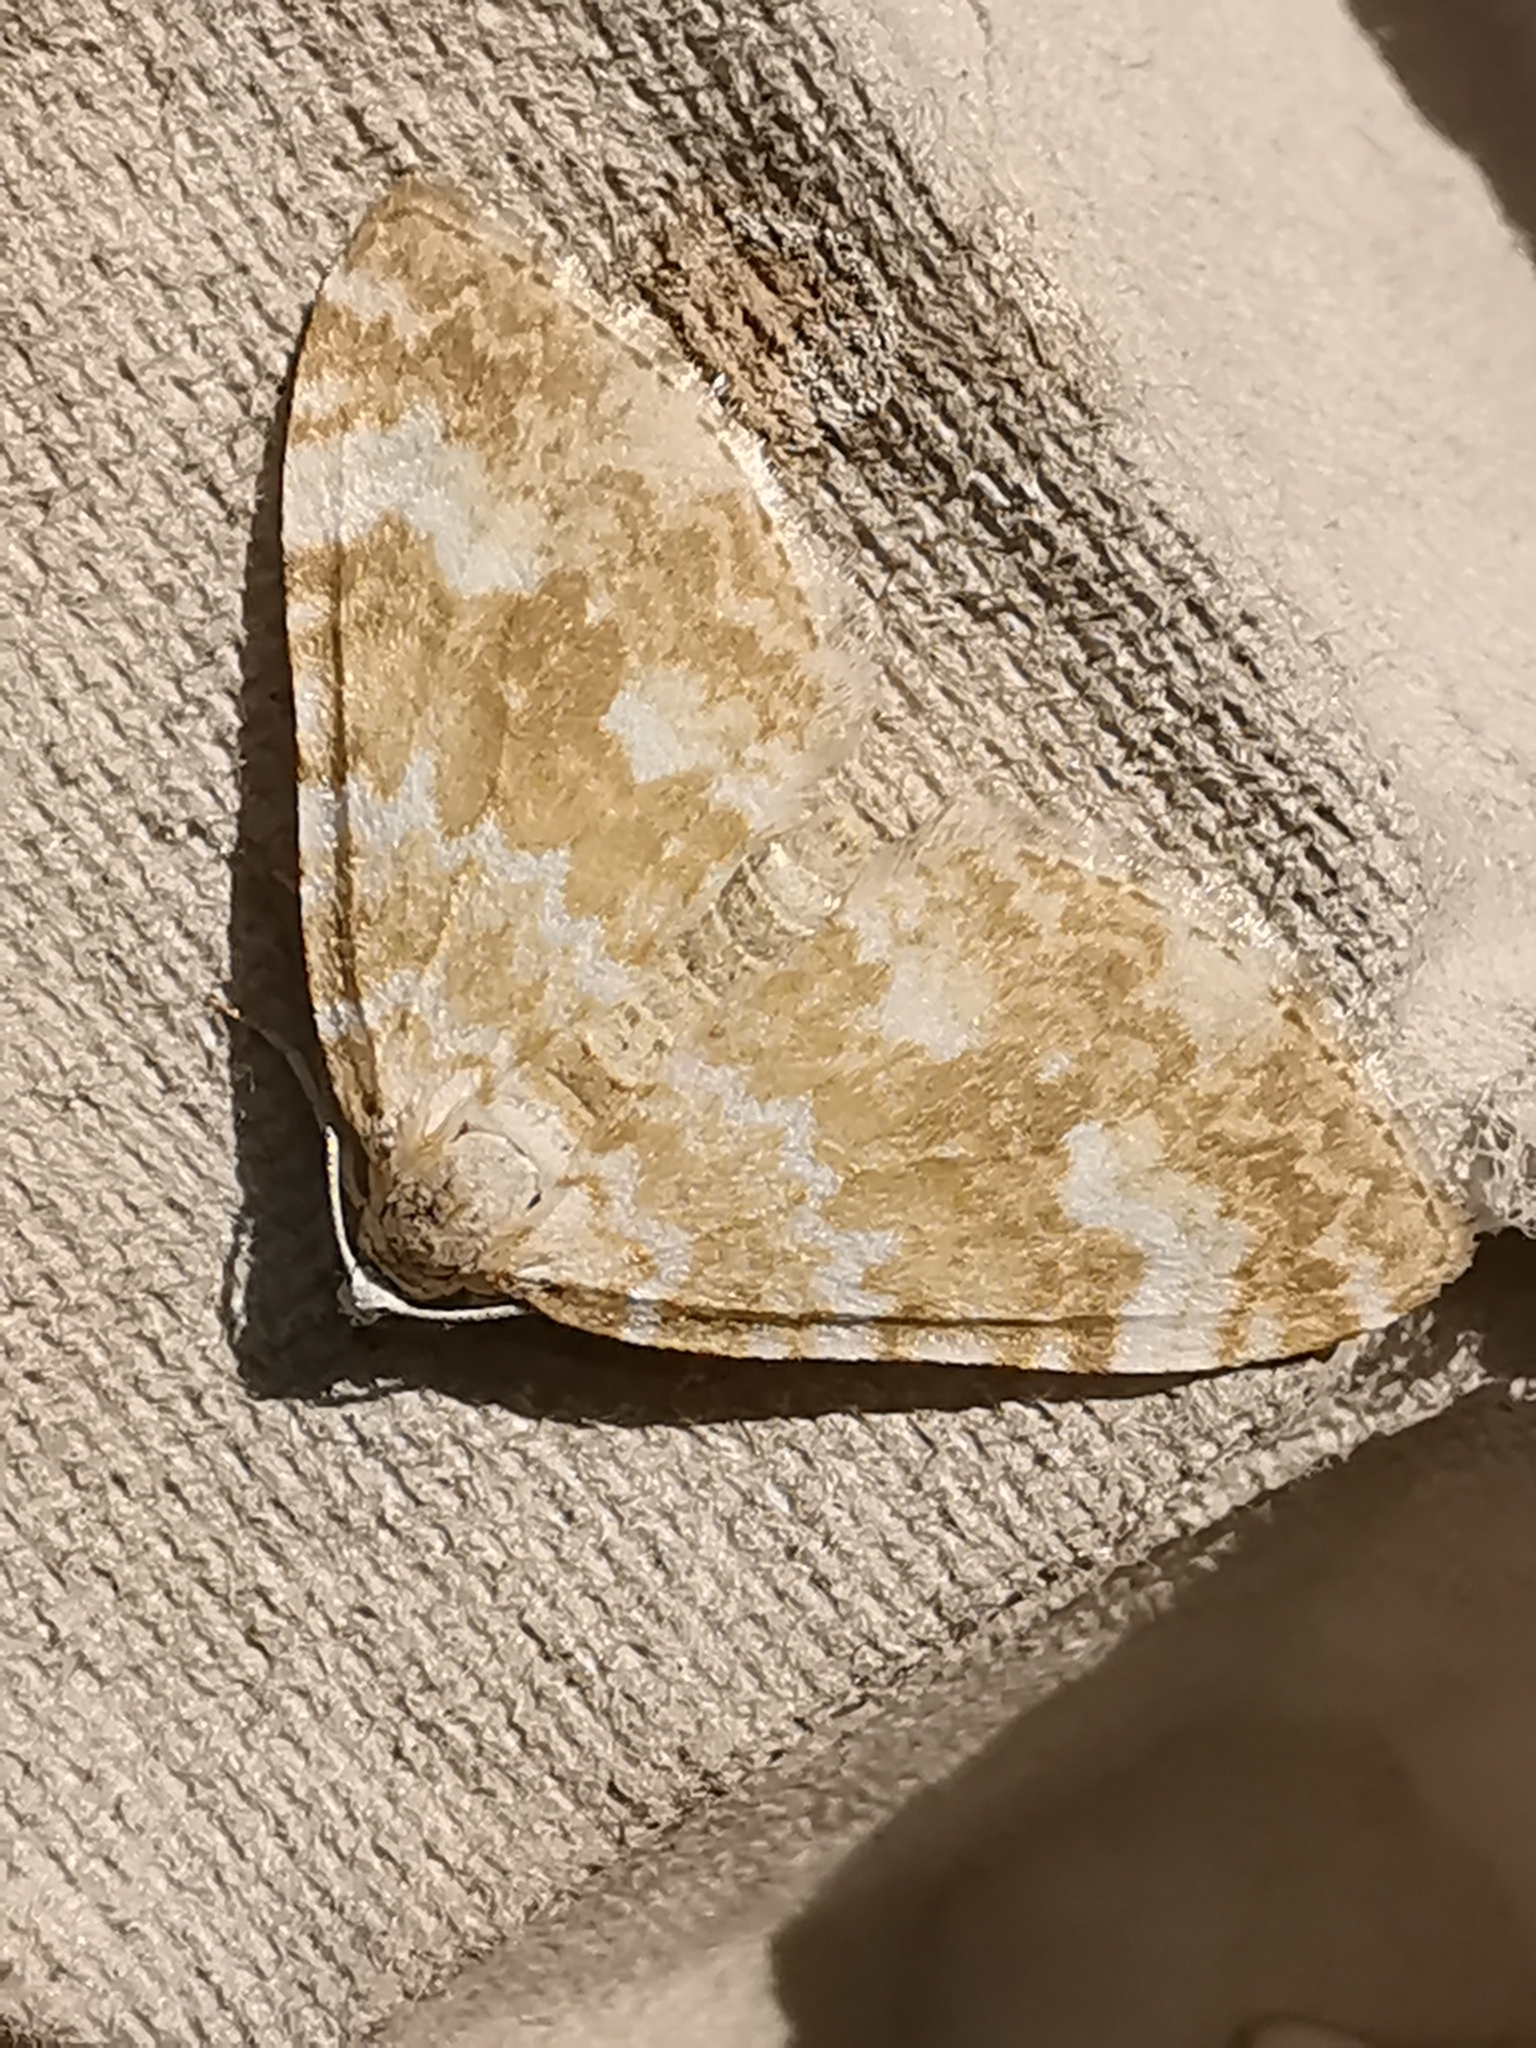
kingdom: Animalia
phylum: Arthropoda
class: Insecta
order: Lepidoptera
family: Geometridae
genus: Perizoma
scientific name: Perizoma flavofasciata
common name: Sandy carpet
